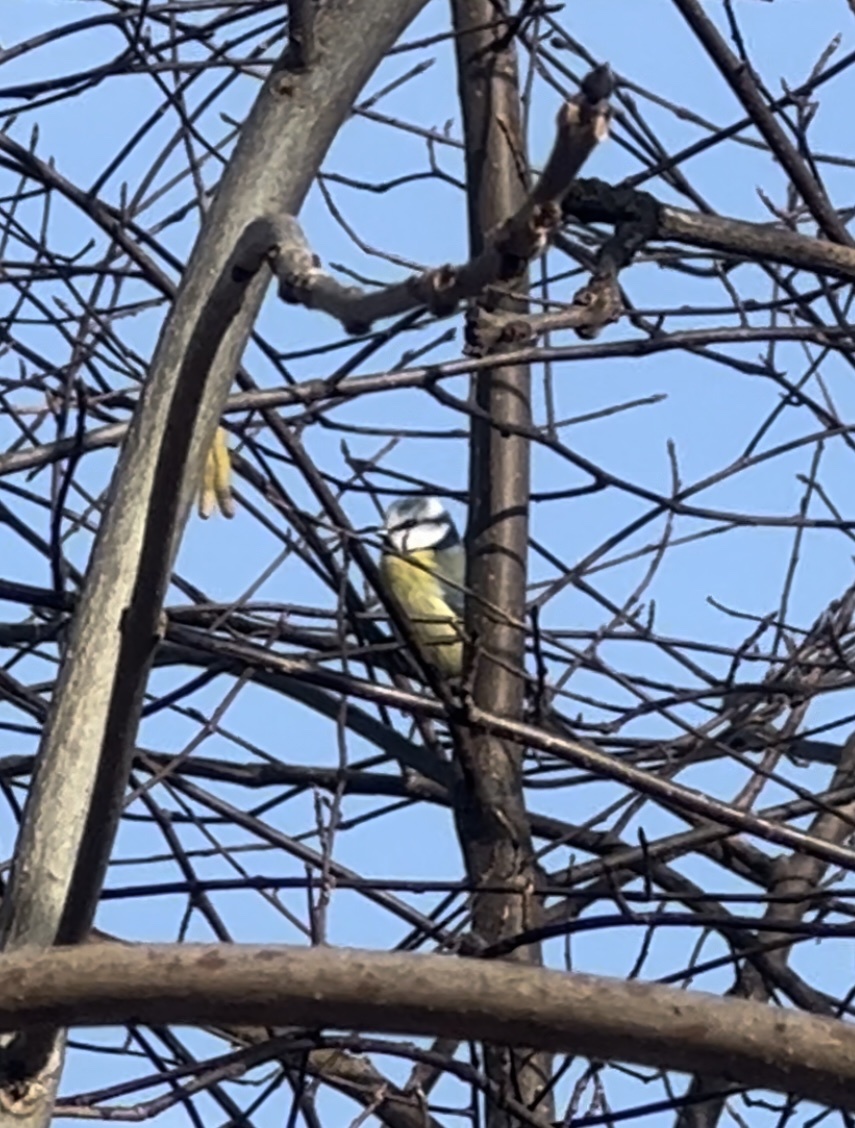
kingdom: Animalia
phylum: Chordata
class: Aves
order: Passeriformes
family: Paridae
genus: Cyanistes
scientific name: Cyanistes caeruleus
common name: Eurasian blue tit
